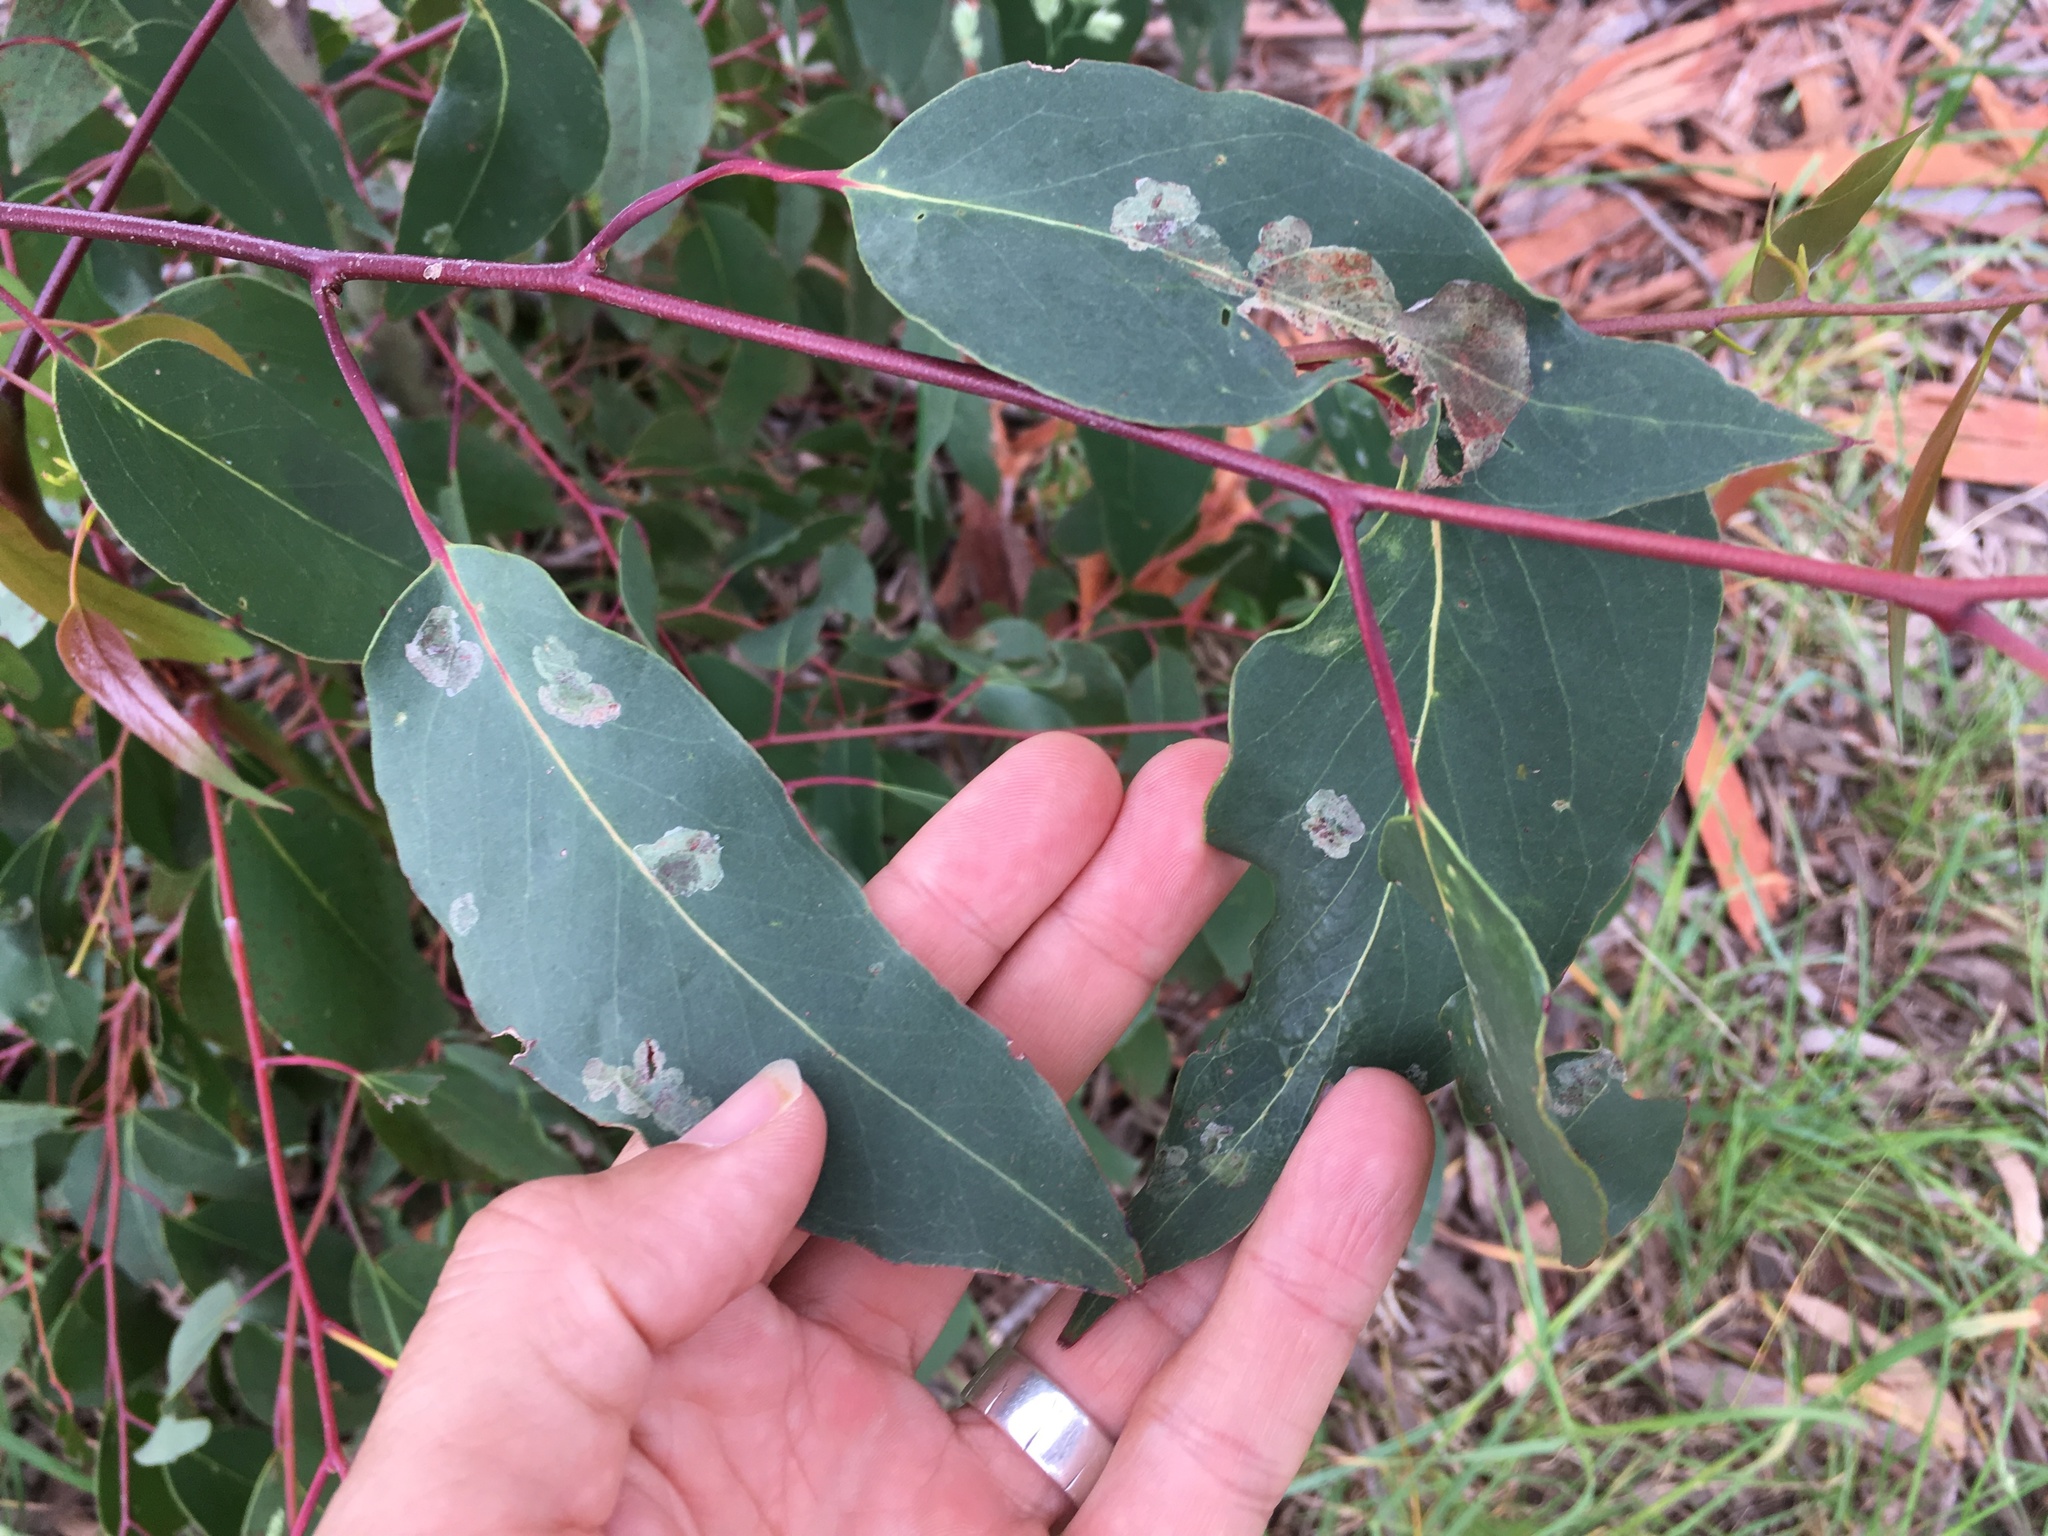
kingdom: Animalia
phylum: Arthropoda
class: Insecta
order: Hymenoptera
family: Pergidae
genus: Phylacteophaga
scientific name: Phylacteophaga froggatti
